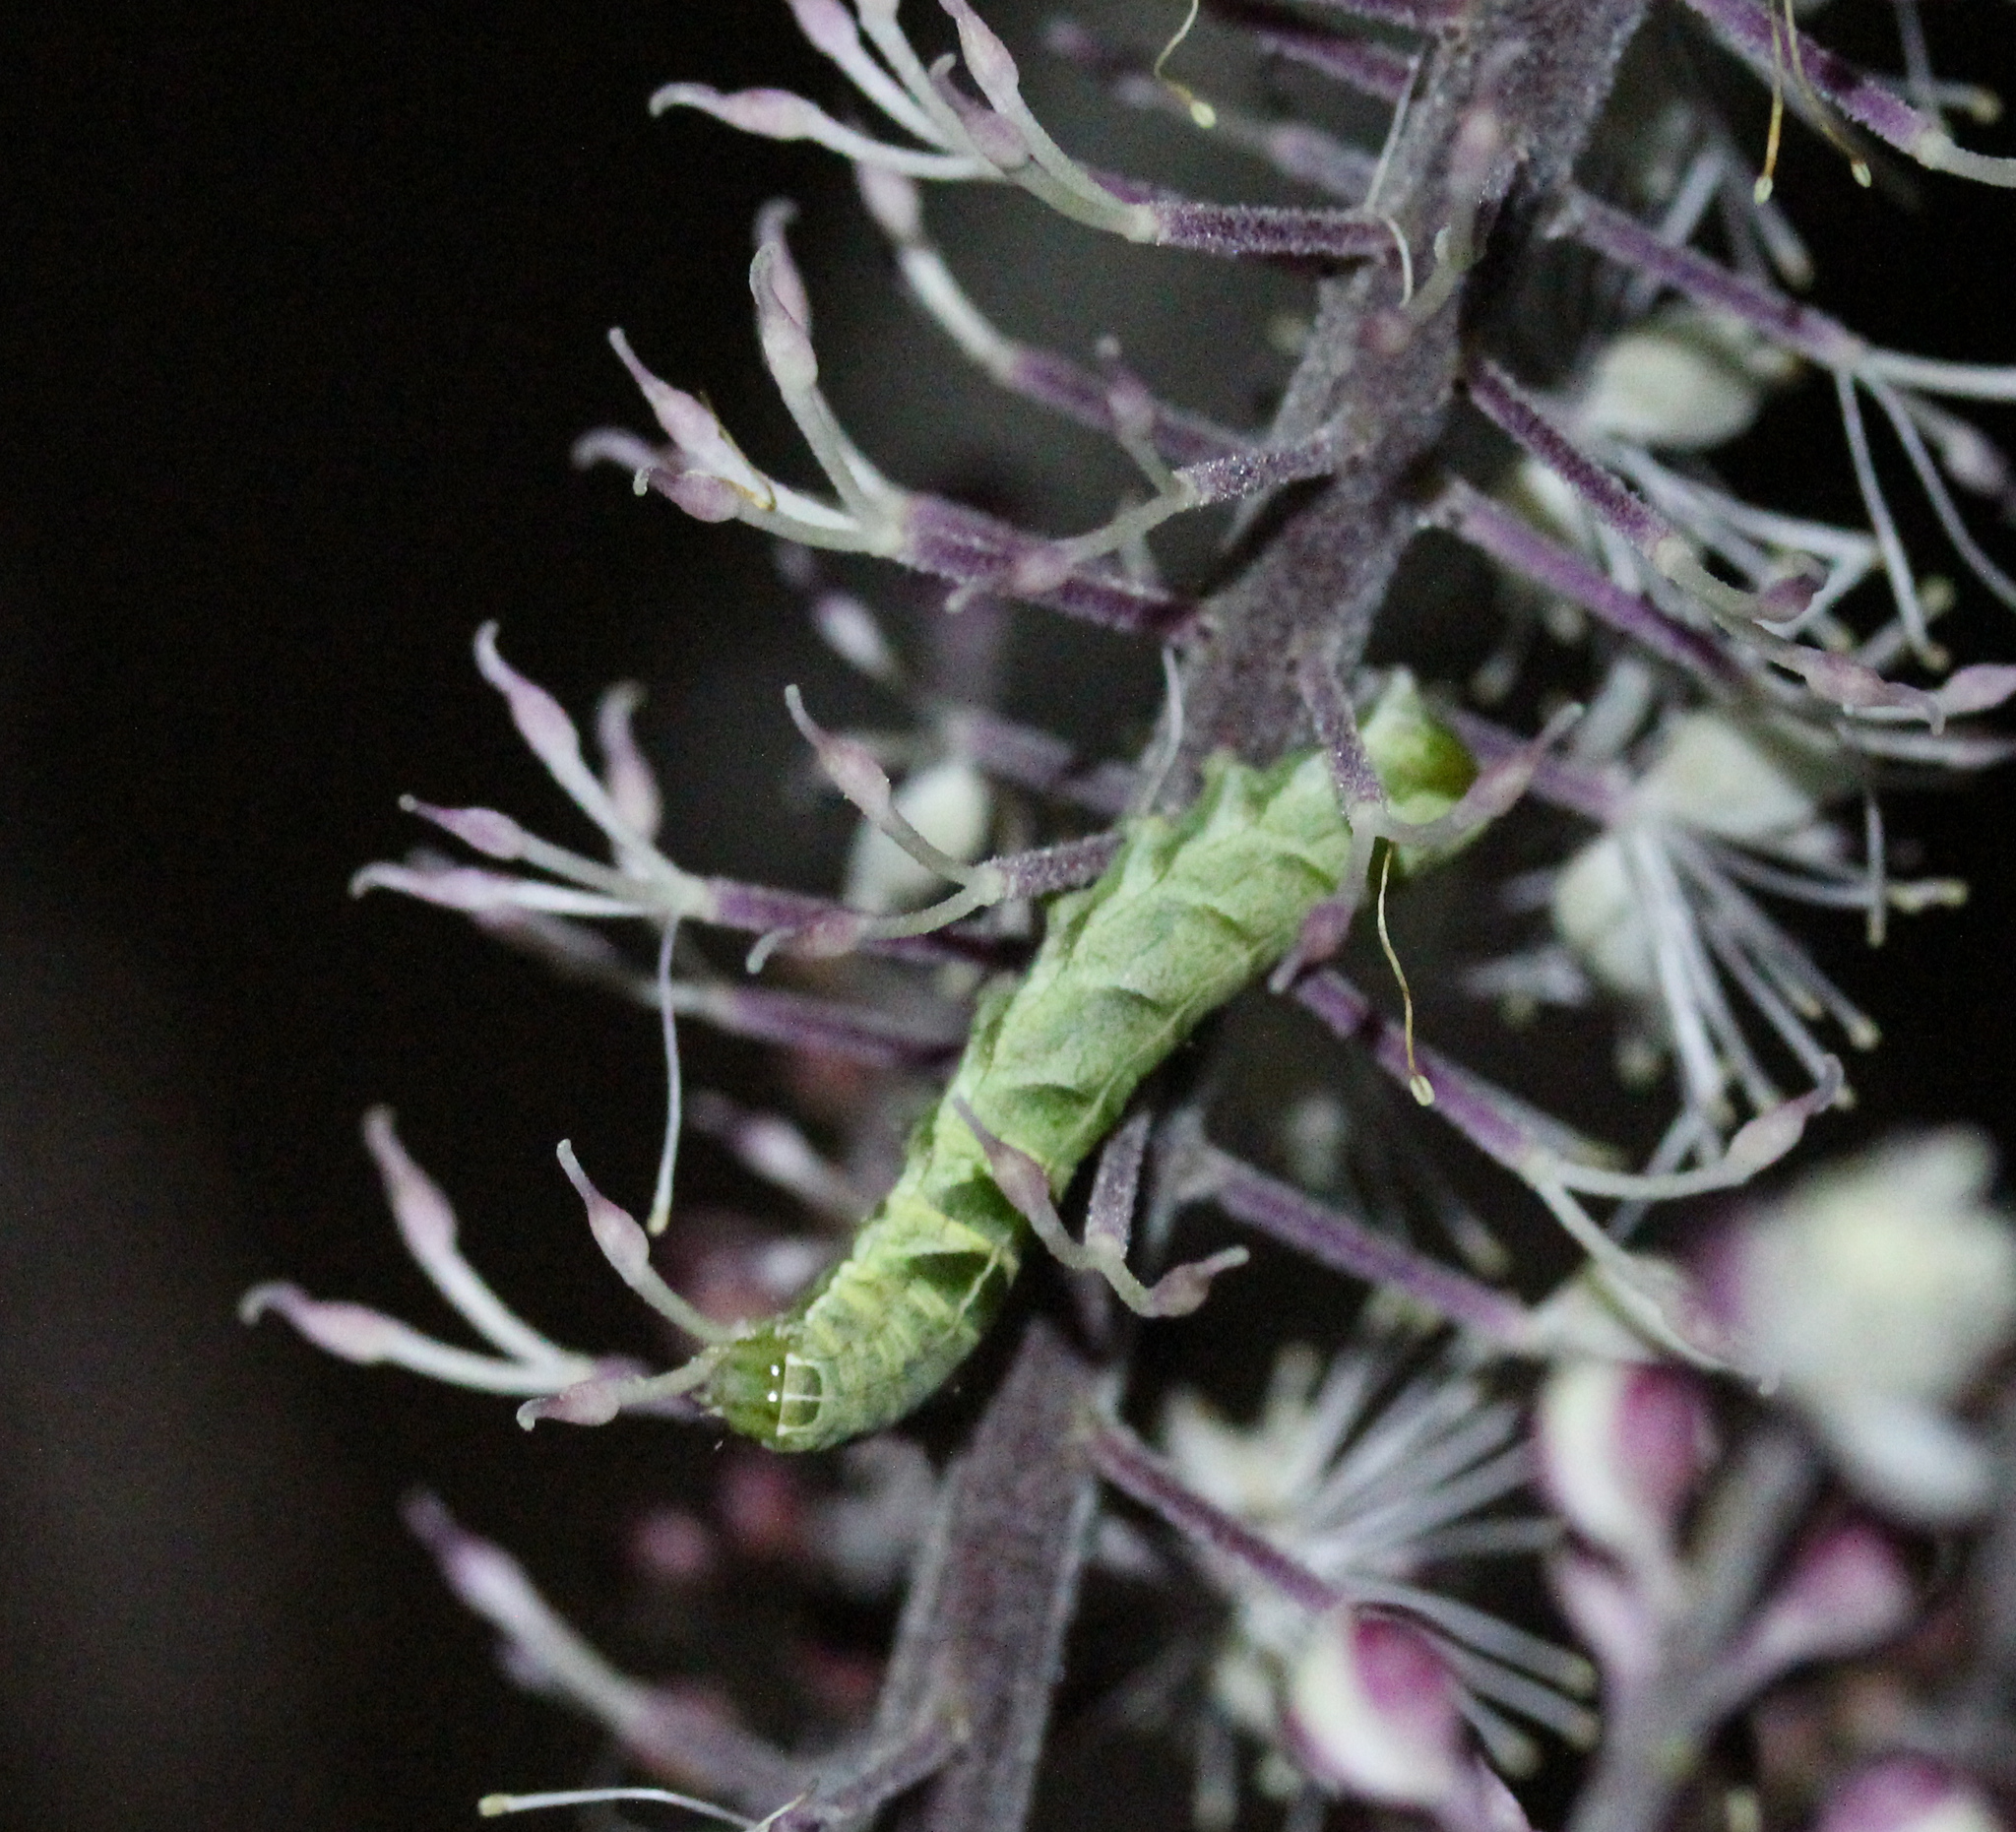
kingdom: Animalia
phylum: Arthropoda
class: Insecta
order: Lepidoptera
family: Noctuidae
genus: Melanchra
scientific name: Melanchra adjuncta
